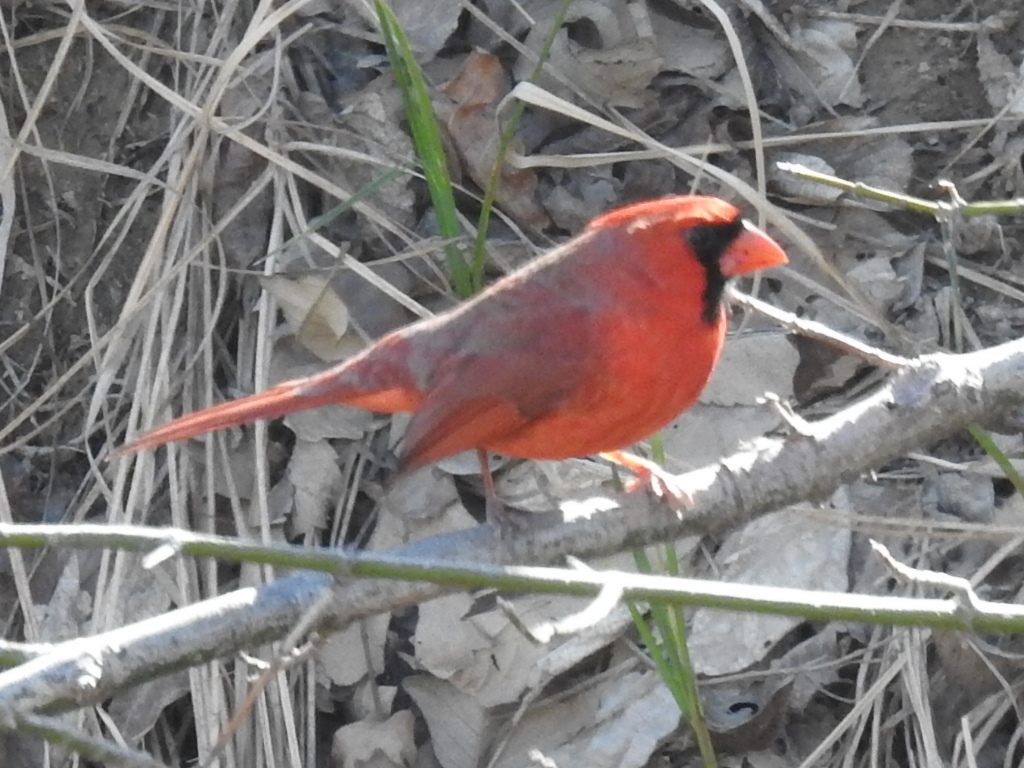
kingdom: Animalia
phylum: Chordata
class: Aves
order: Passeriformes
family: Cardinalidae
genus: Cardinalis
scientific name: Cardinalis cardinalis
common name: Northern cardinal
